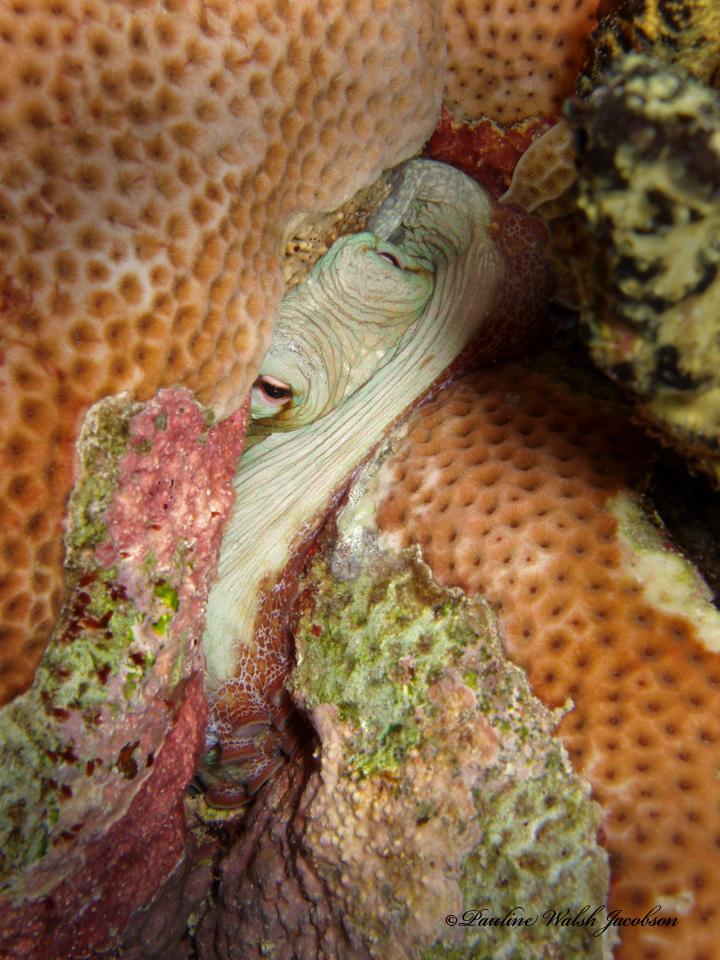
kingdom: Animalia
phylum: Mollusca
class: Cephalopoda
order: Octopoda
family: Octopodidae
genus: Octopus
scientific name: Octopus insularis
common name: Brazil reef octopus
